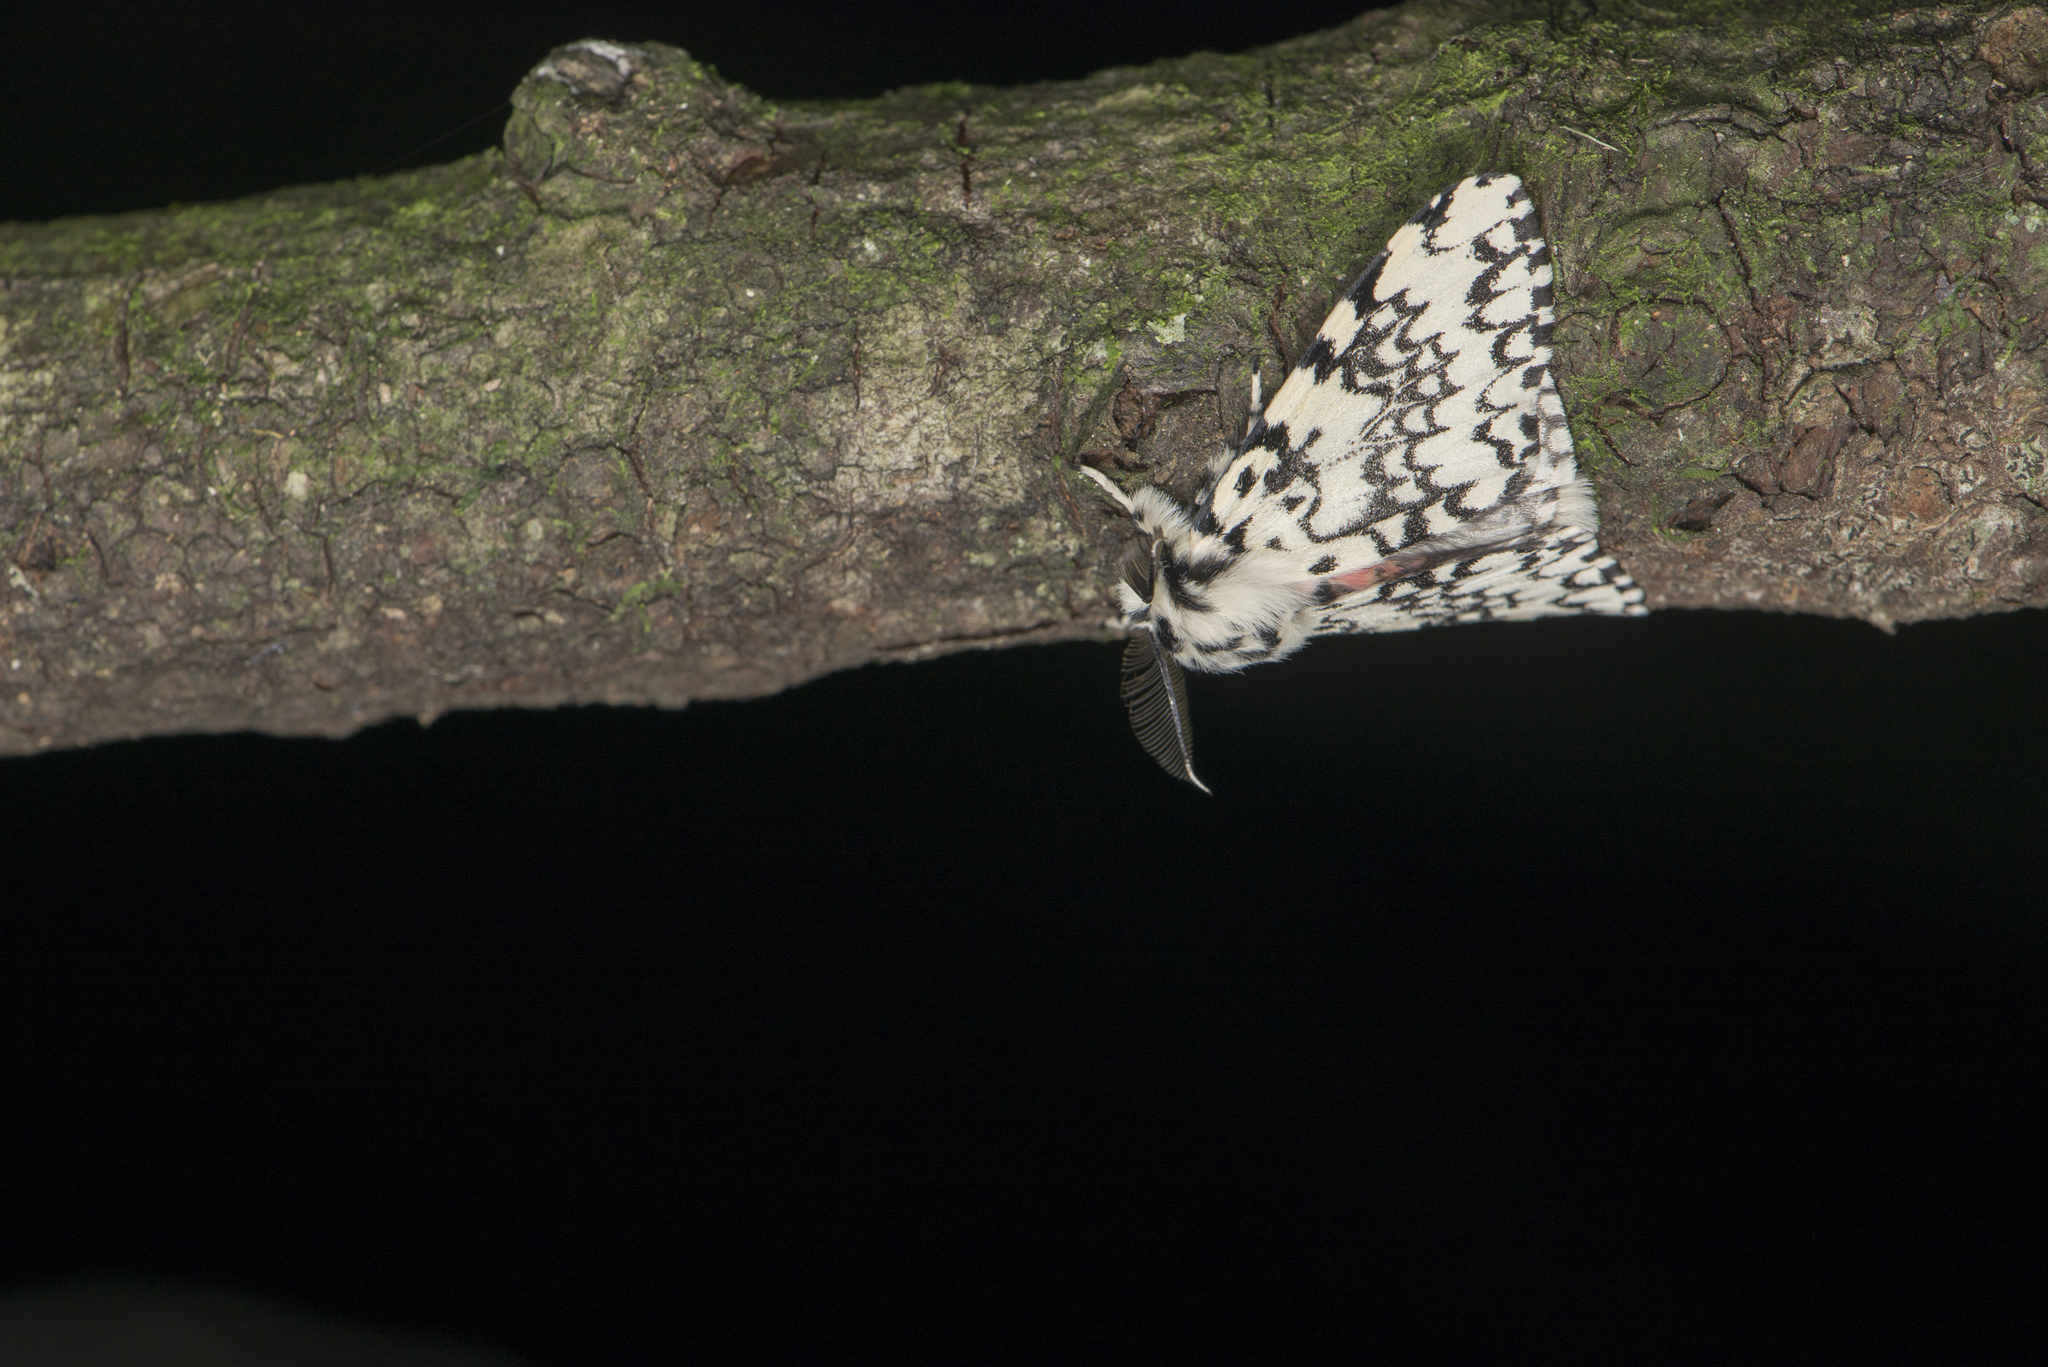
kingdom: Animalia
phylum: Arthropoda
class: Insecta
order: Lepidoptera
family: Erebidae
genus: Lymantria
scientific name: Lymantria concolor
